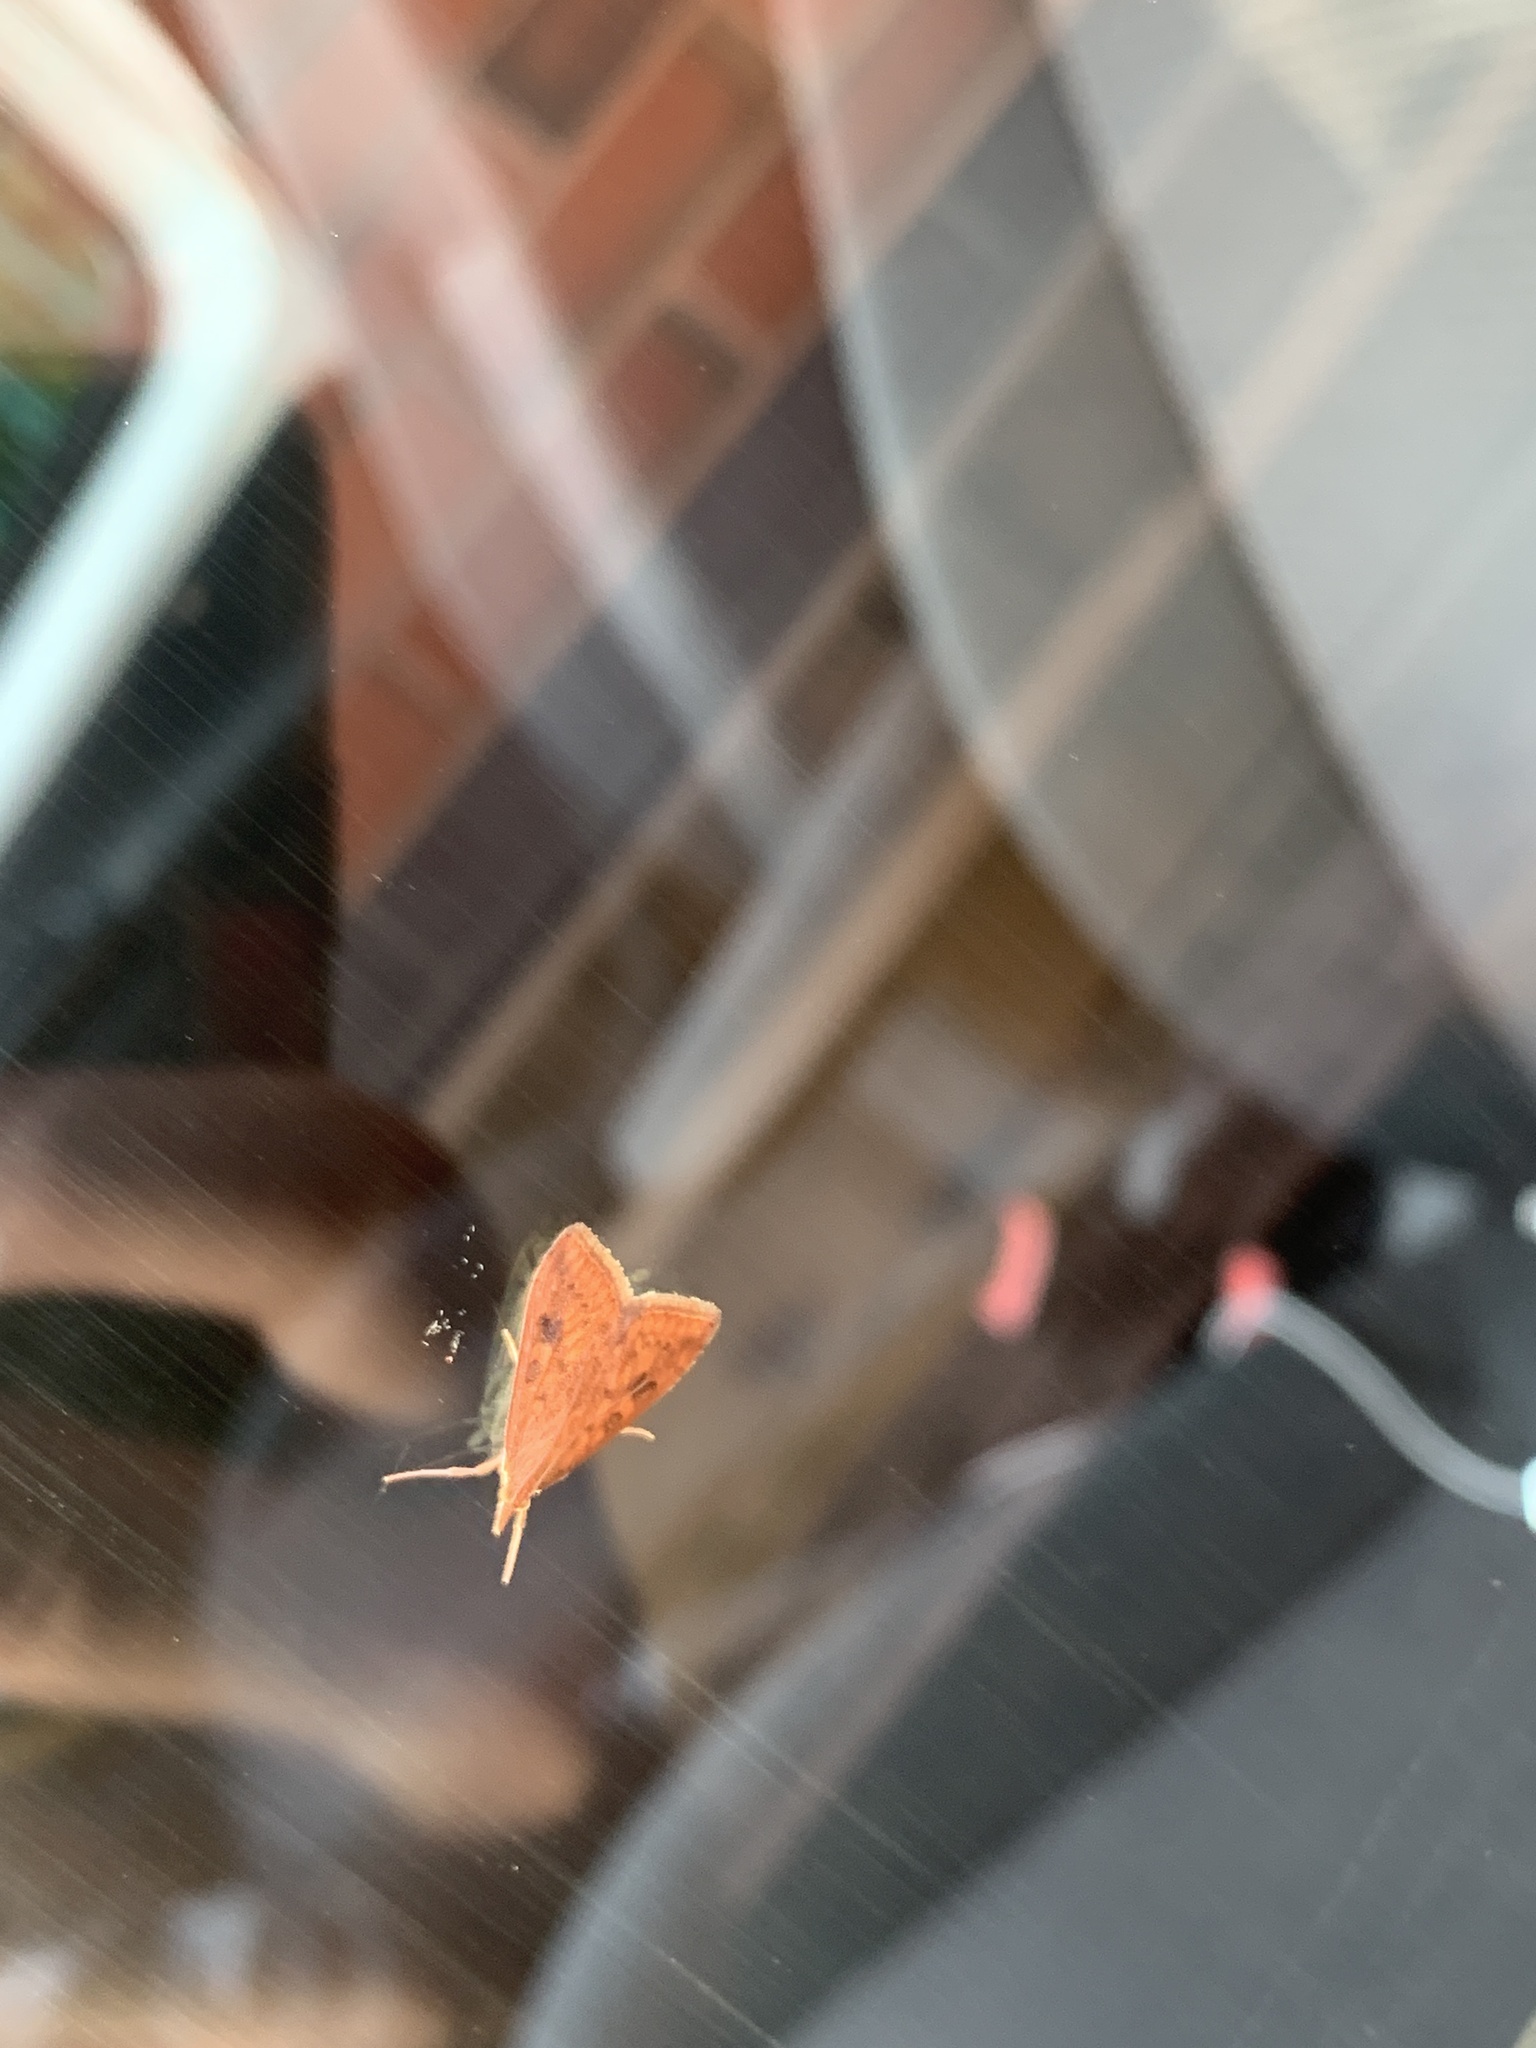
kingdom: Animalia
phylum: Arthropoda
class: Insecta
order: Lepidoptera
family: Crambidae
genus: Udea
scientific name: Udea ferrugalis
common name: Rusty dot
